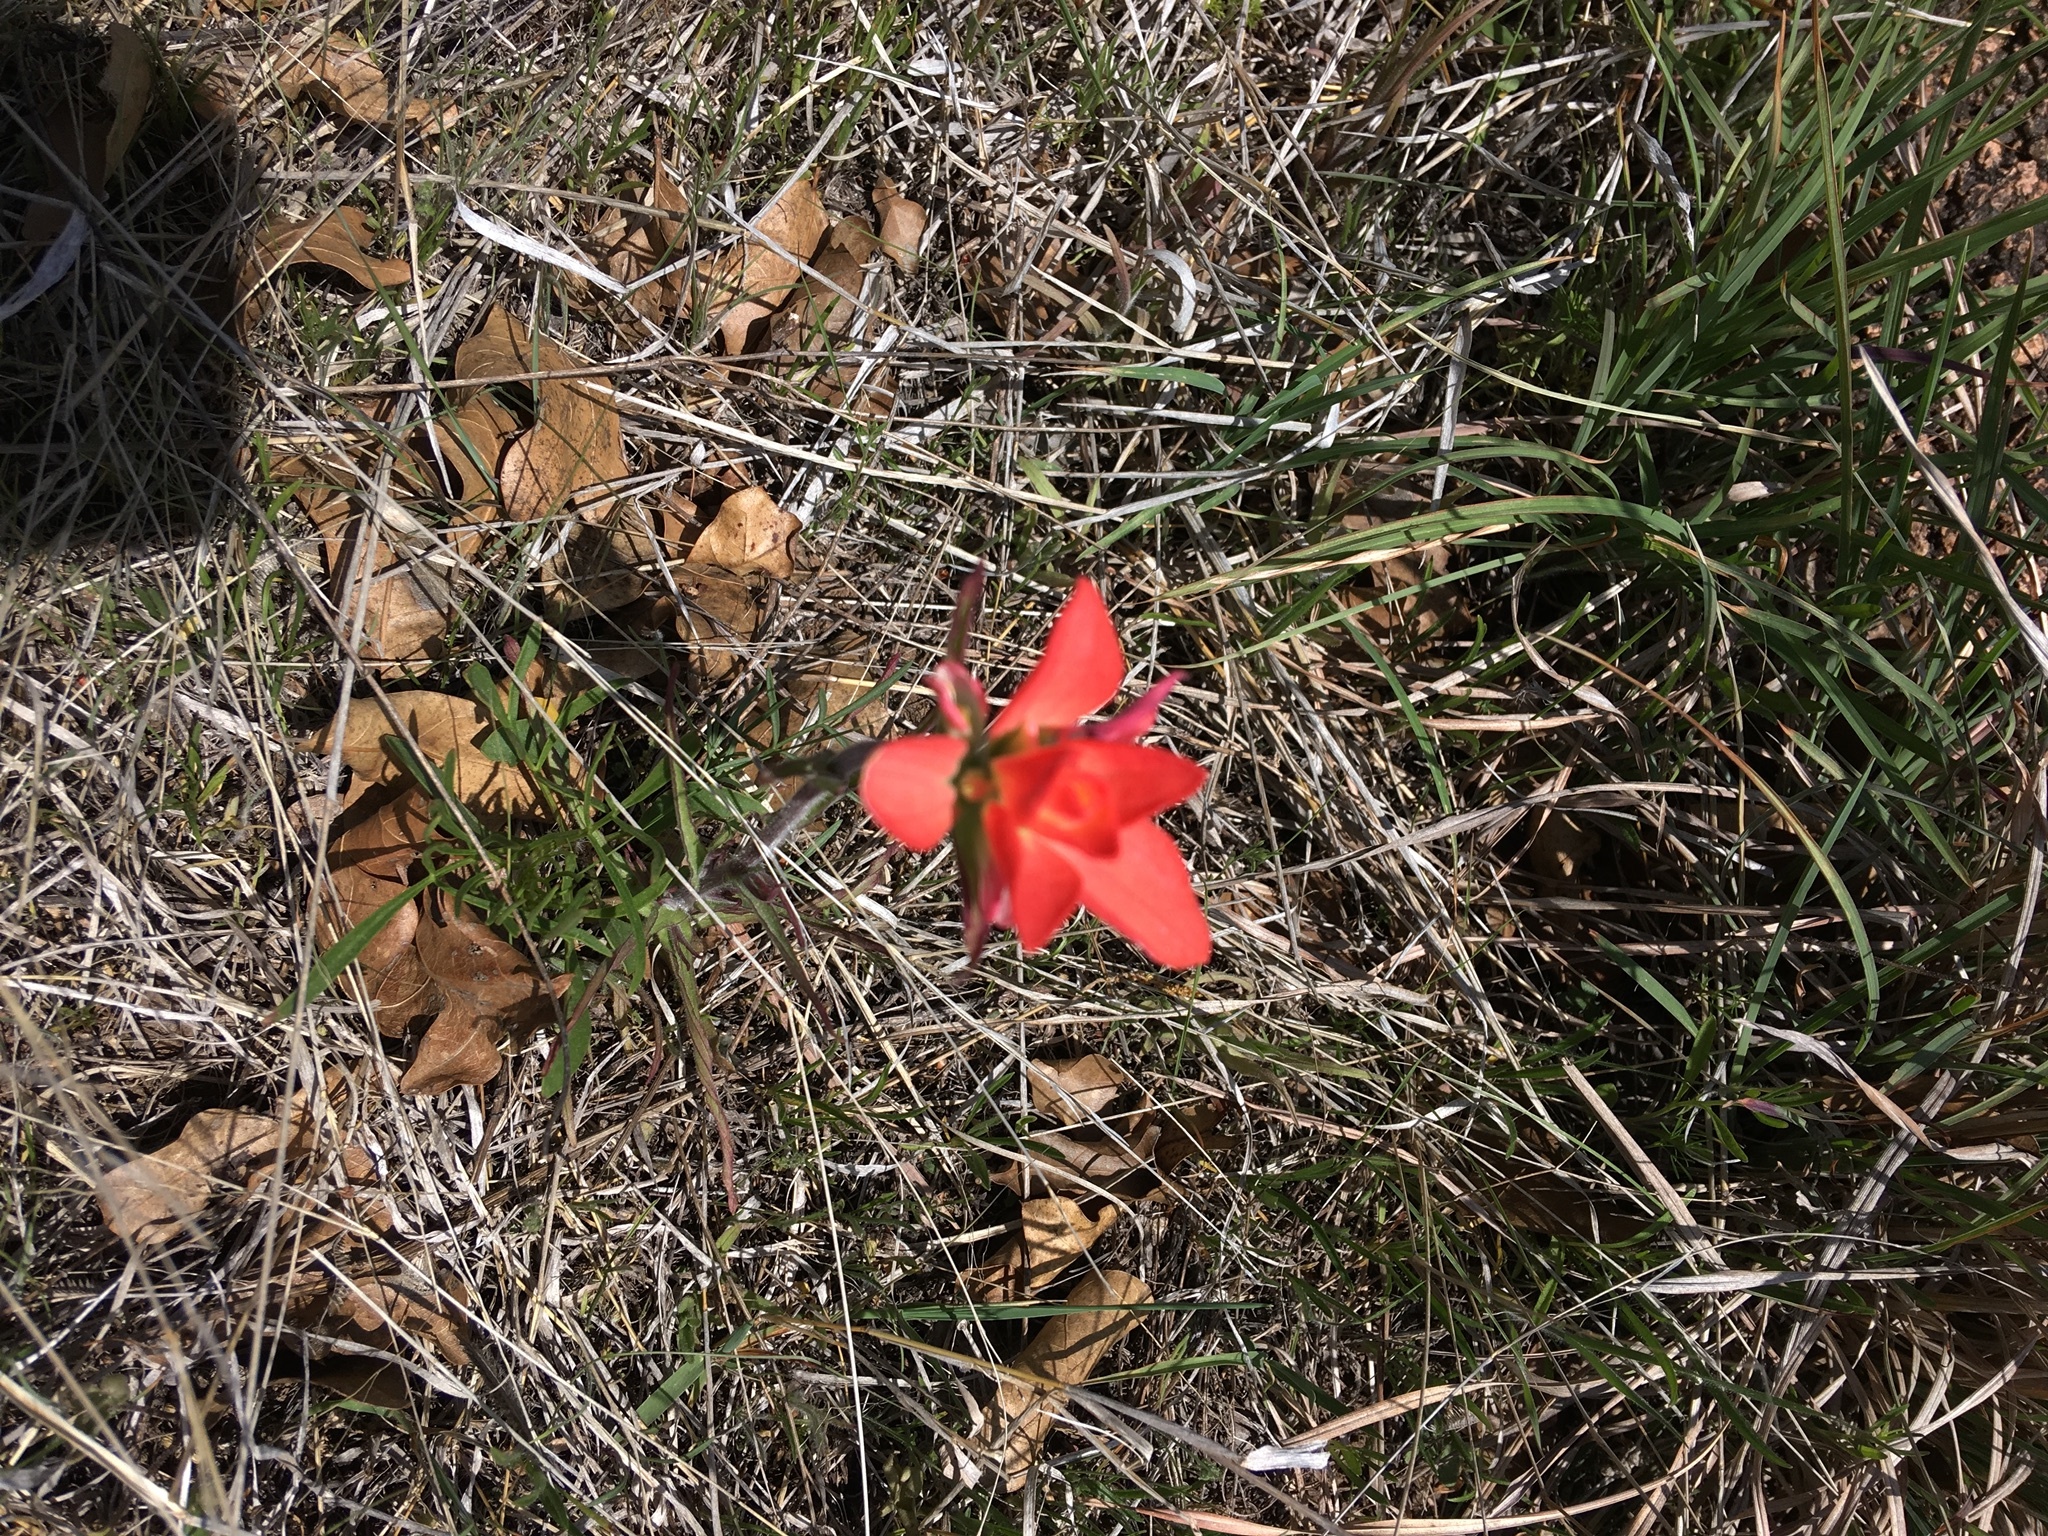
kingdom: Plantae
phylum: Tracheophyta
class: Magnoliopsida
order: Lamiales
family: Orobanchaceae
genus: Castilleja
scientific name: Castilleja indivisa
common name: Texas paintbrush
